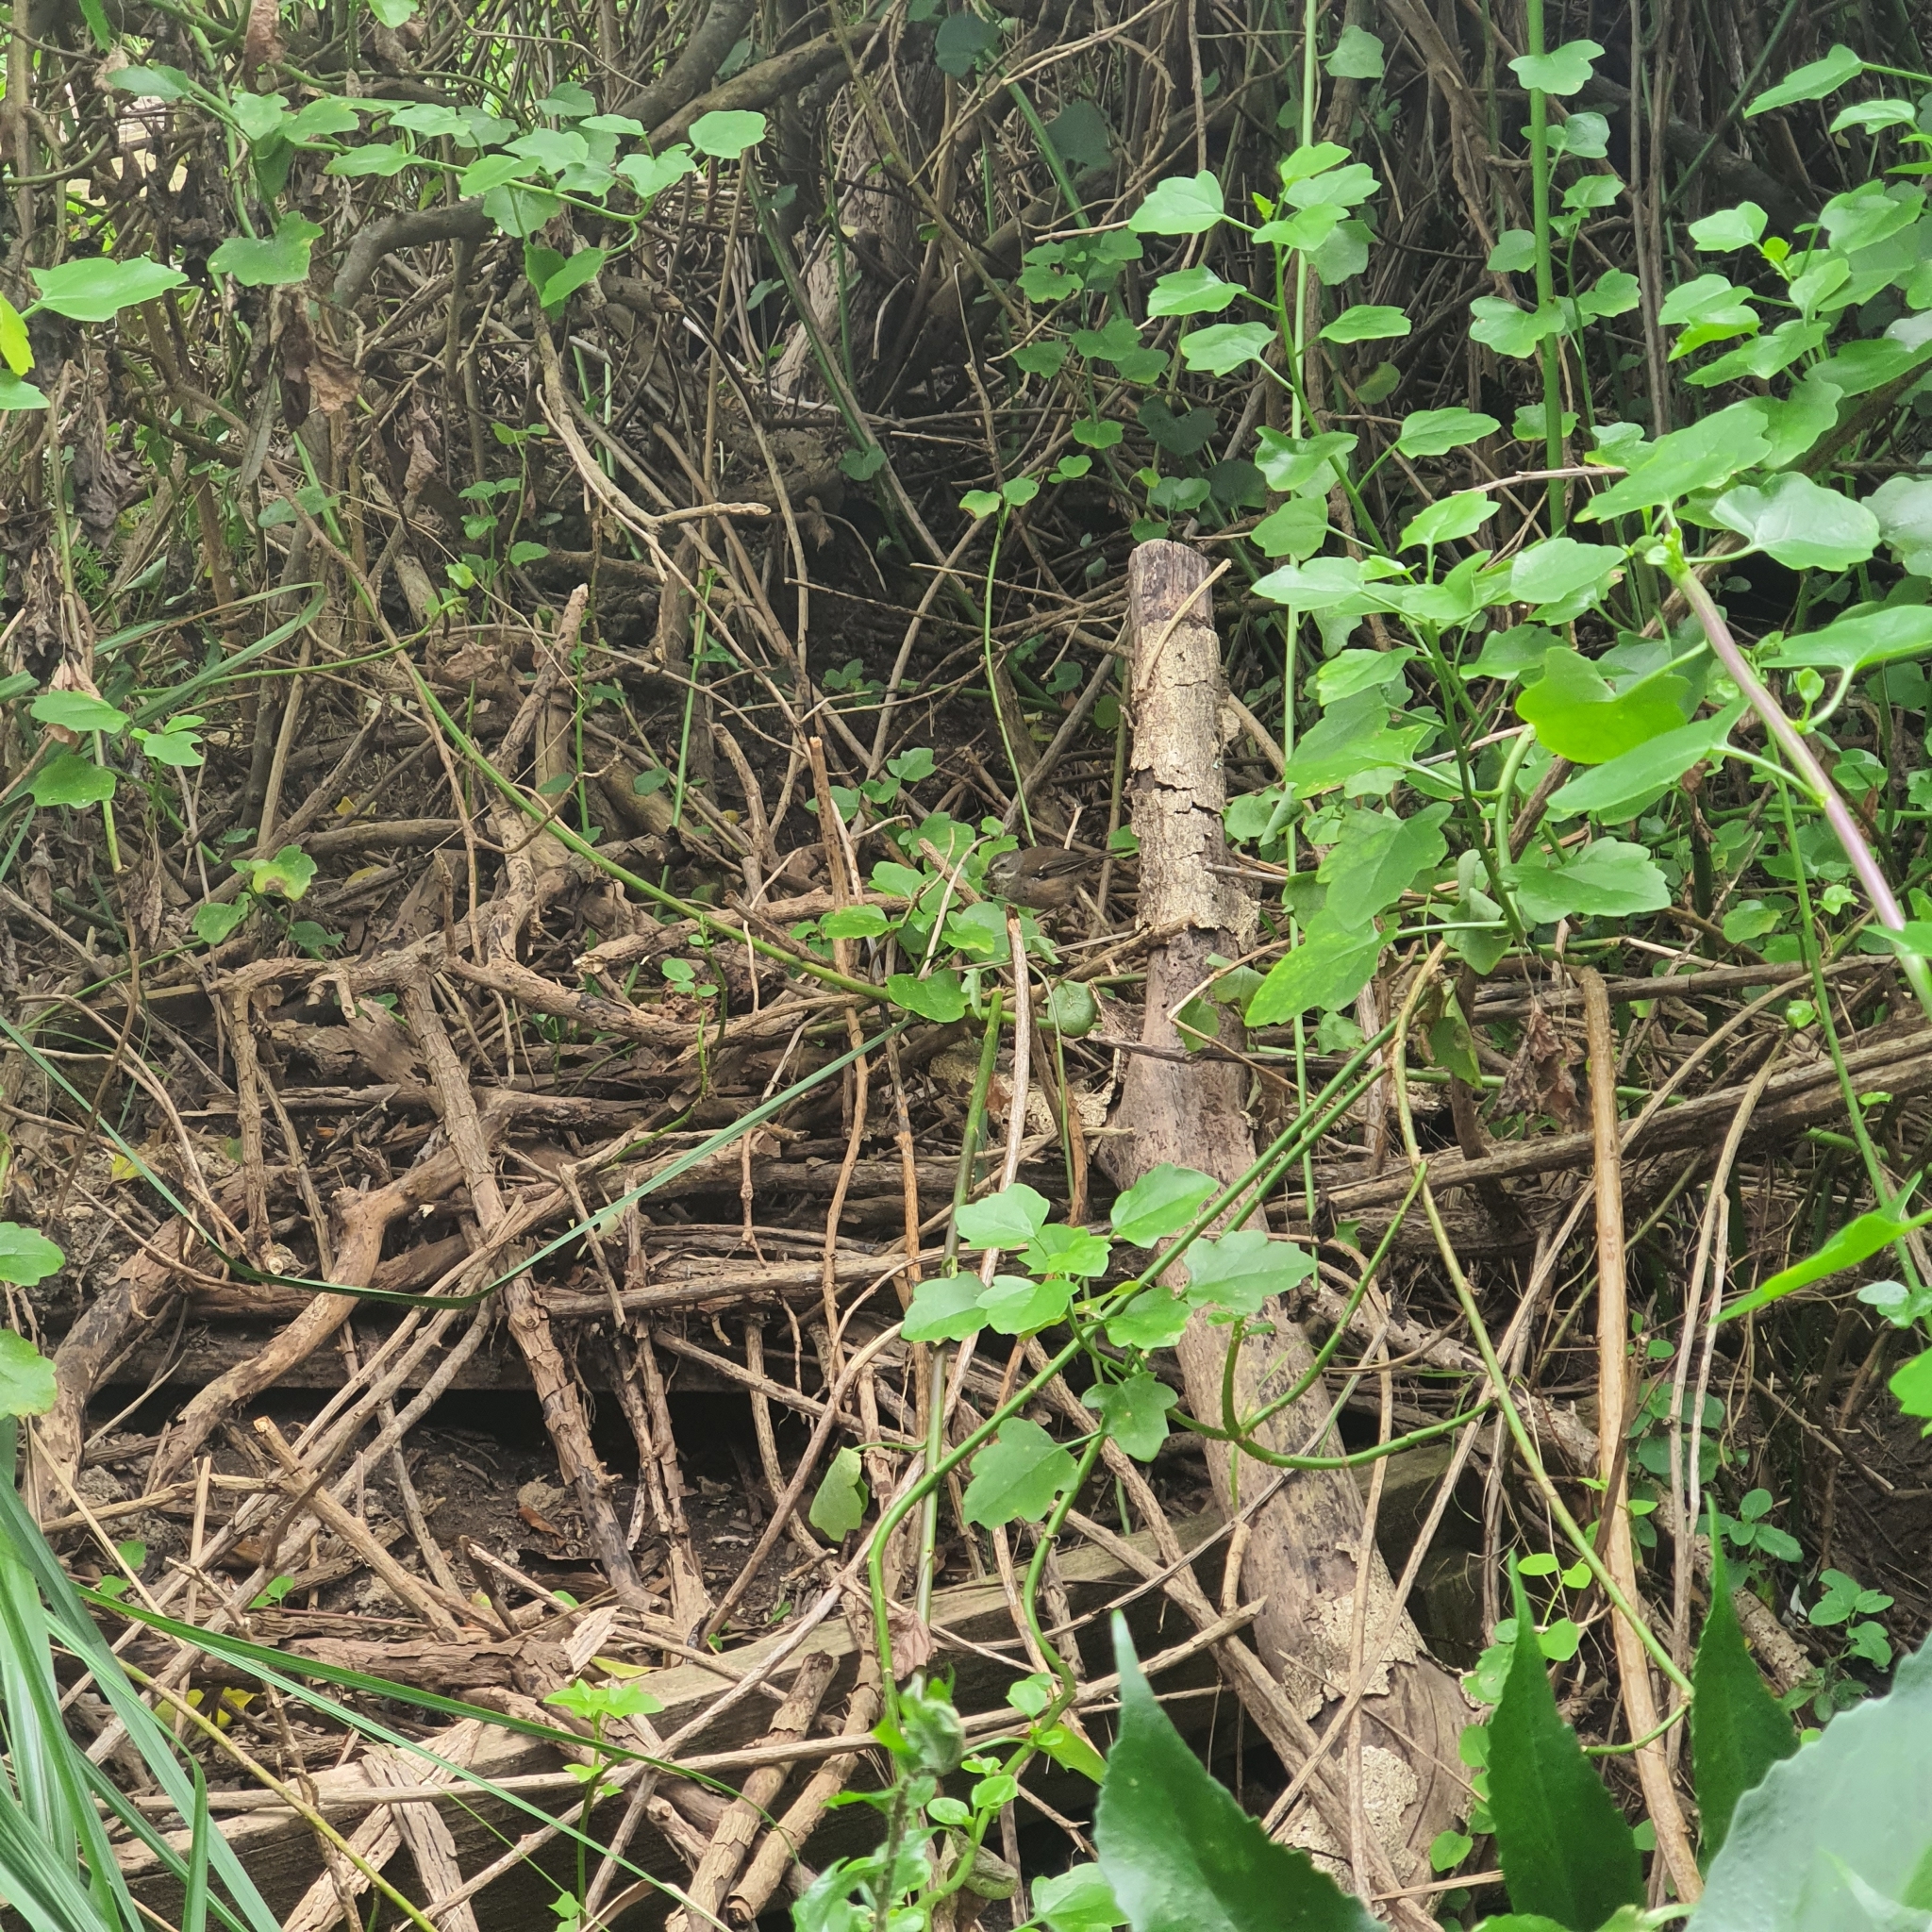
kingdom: Animalia
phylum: Chordata
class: Aves
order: Passeriformes
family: Acanthizidae
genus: Sericornis
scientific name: Sericornis frontalis
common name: White-browed scrubwren
